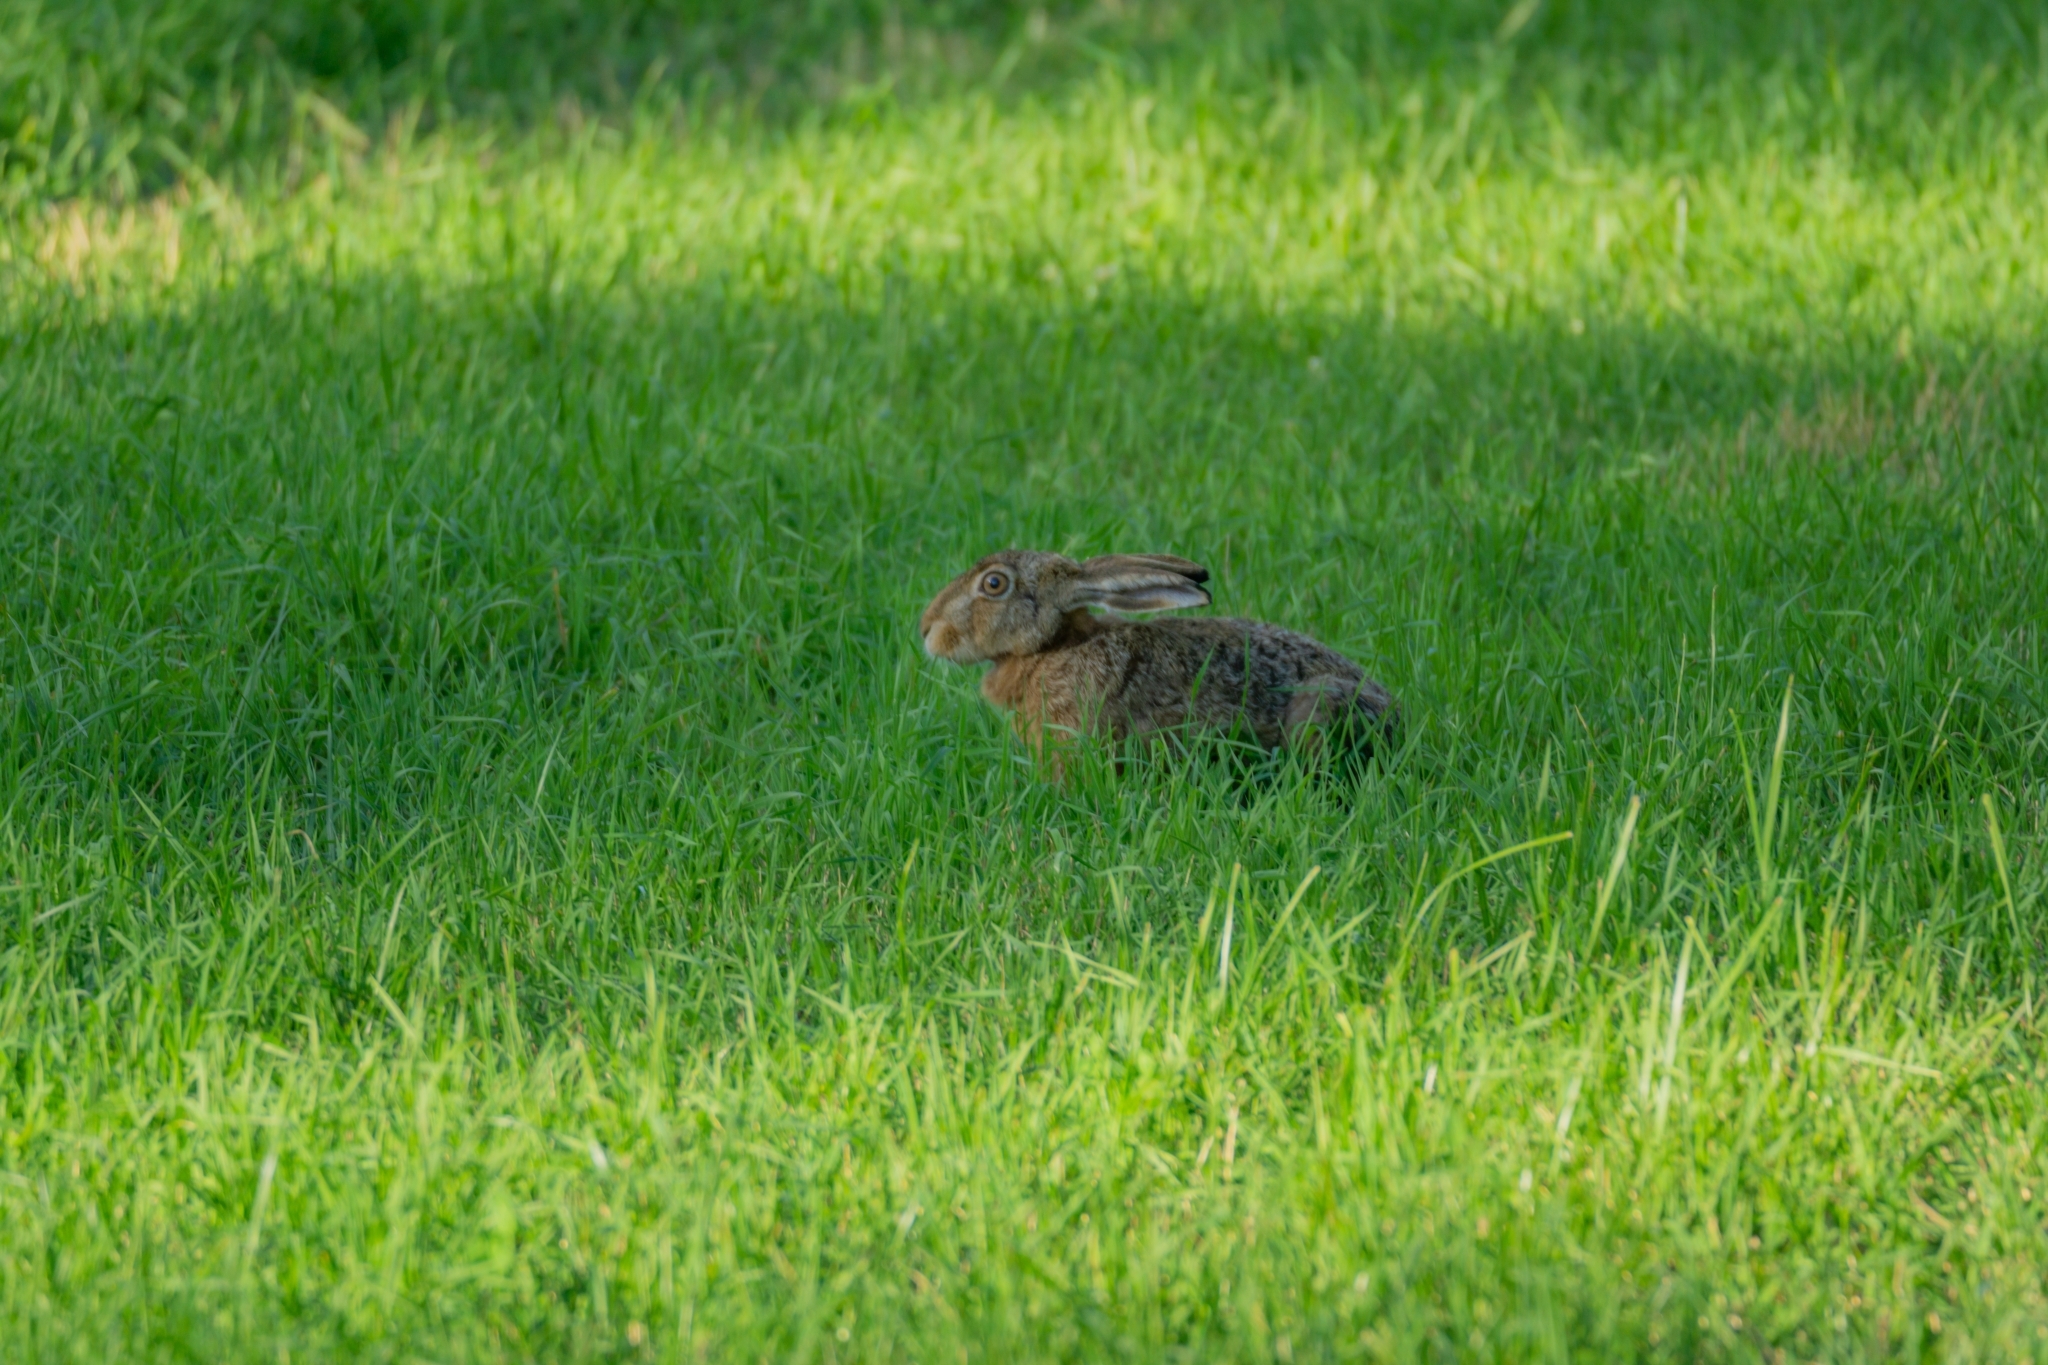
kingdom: Animalia
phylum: Chordata
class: Mammalia
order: Lagomorpha
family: Leporidae
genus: Lepus
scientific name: Lepus europaeus
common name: European hare
